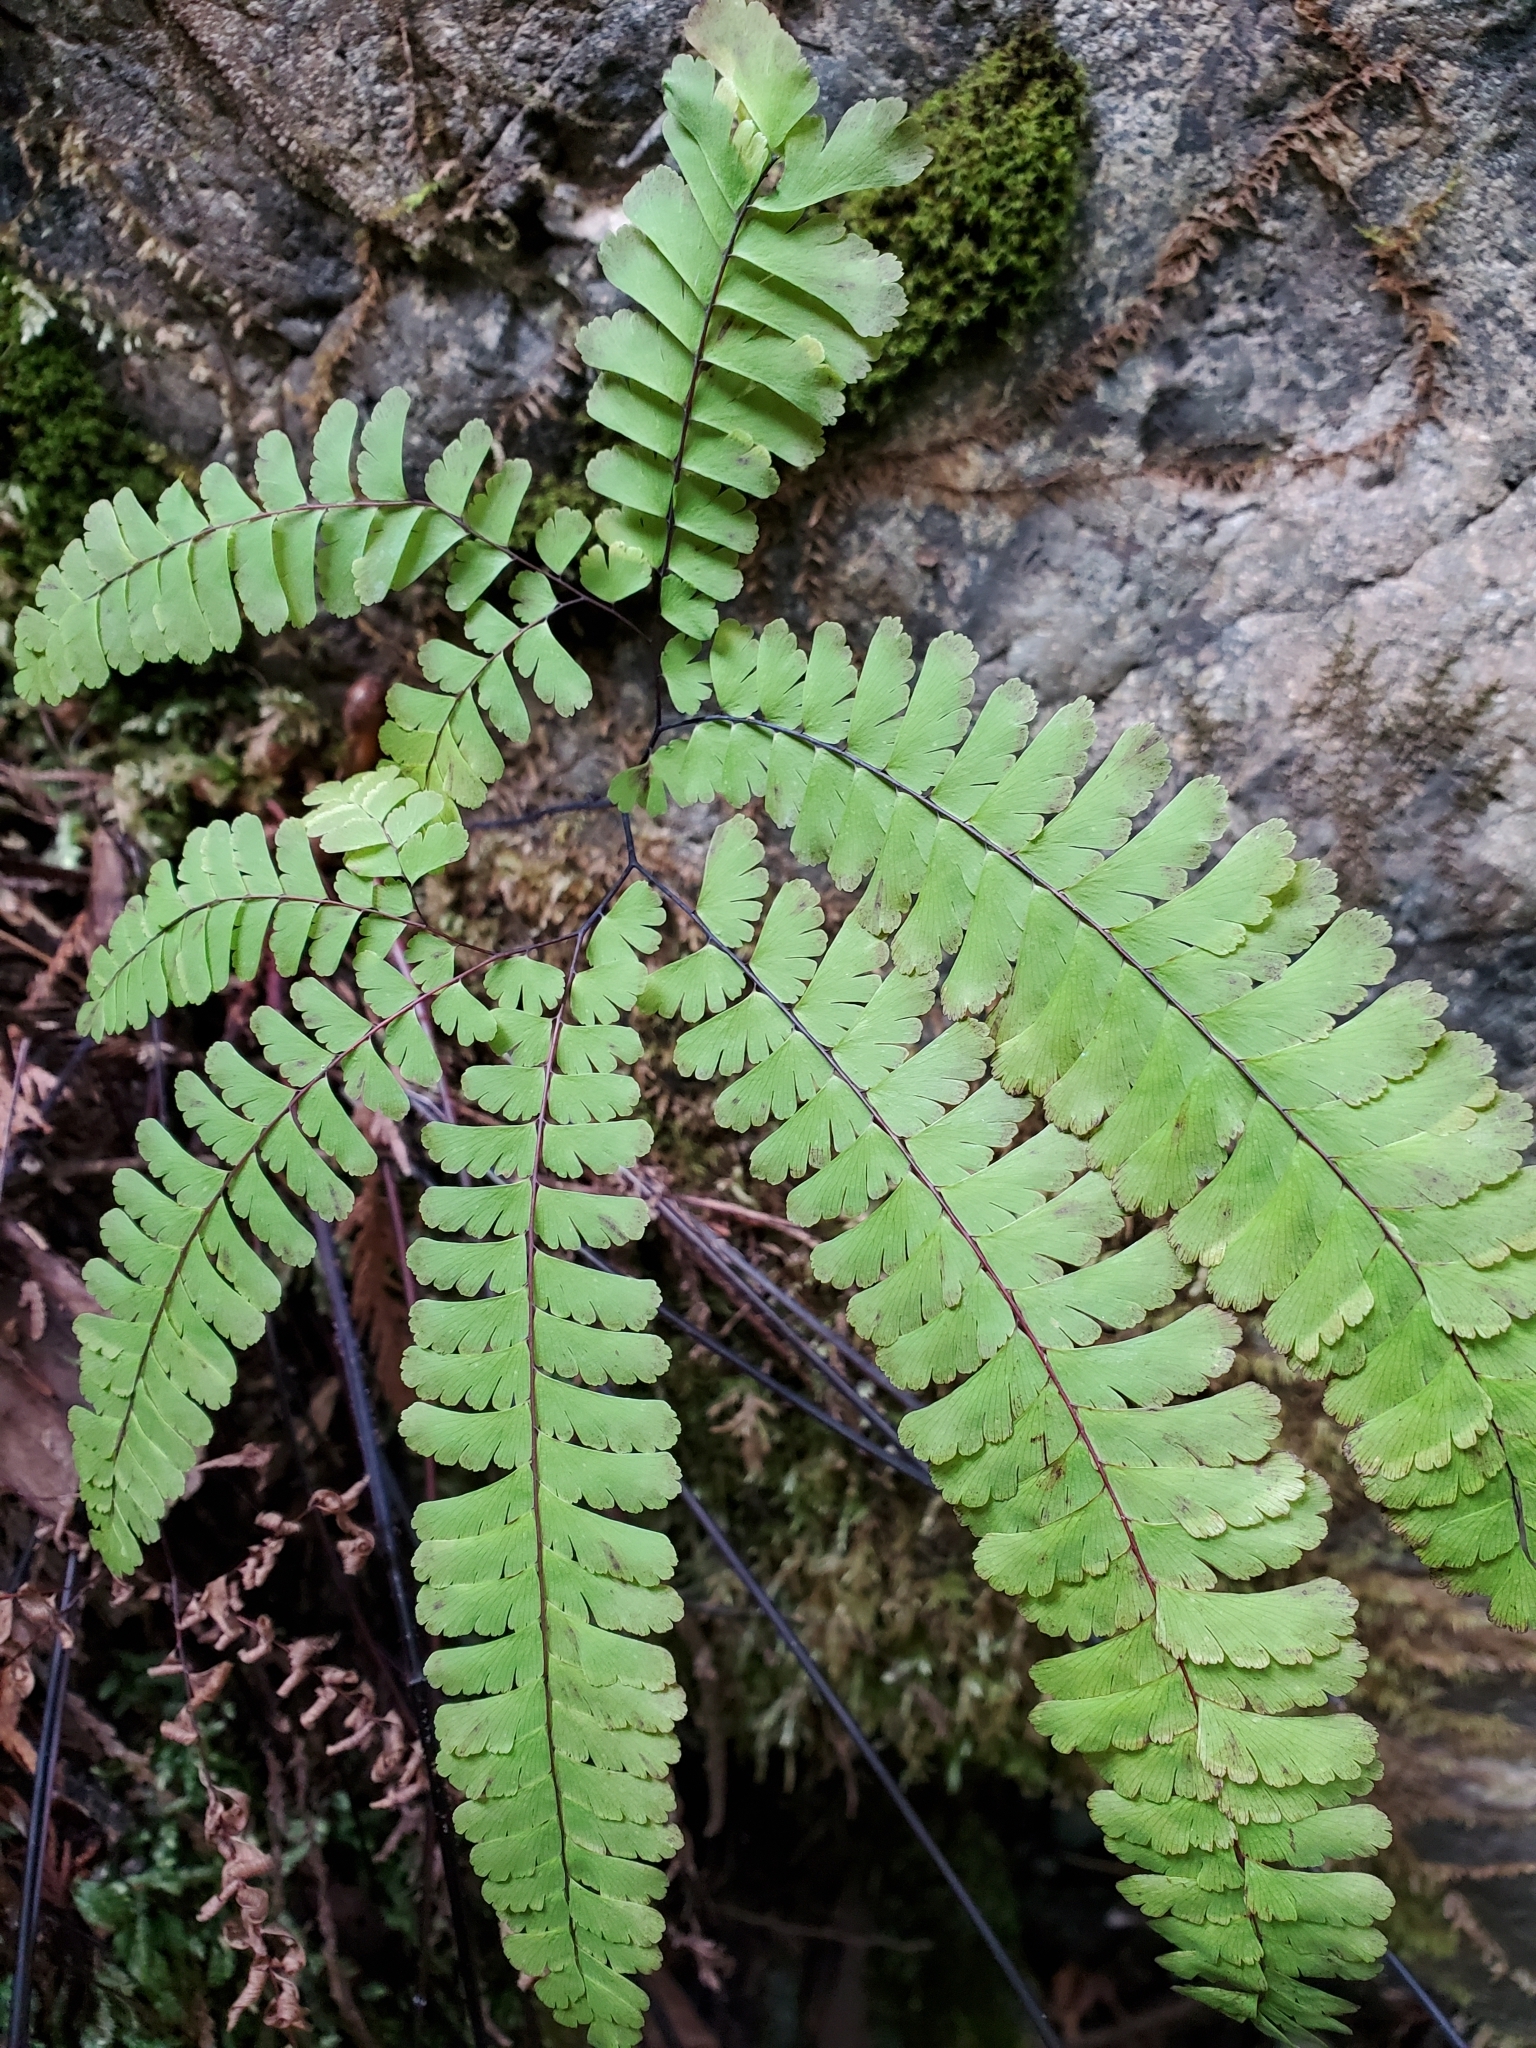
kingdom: Plantae
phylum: Tracheophyta
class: Polypodiopsida
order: Polypodiales
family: Pteridaceae
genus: Adiantum
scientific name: Adiantum aleuticum
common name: Aleutian maidenhair fern
